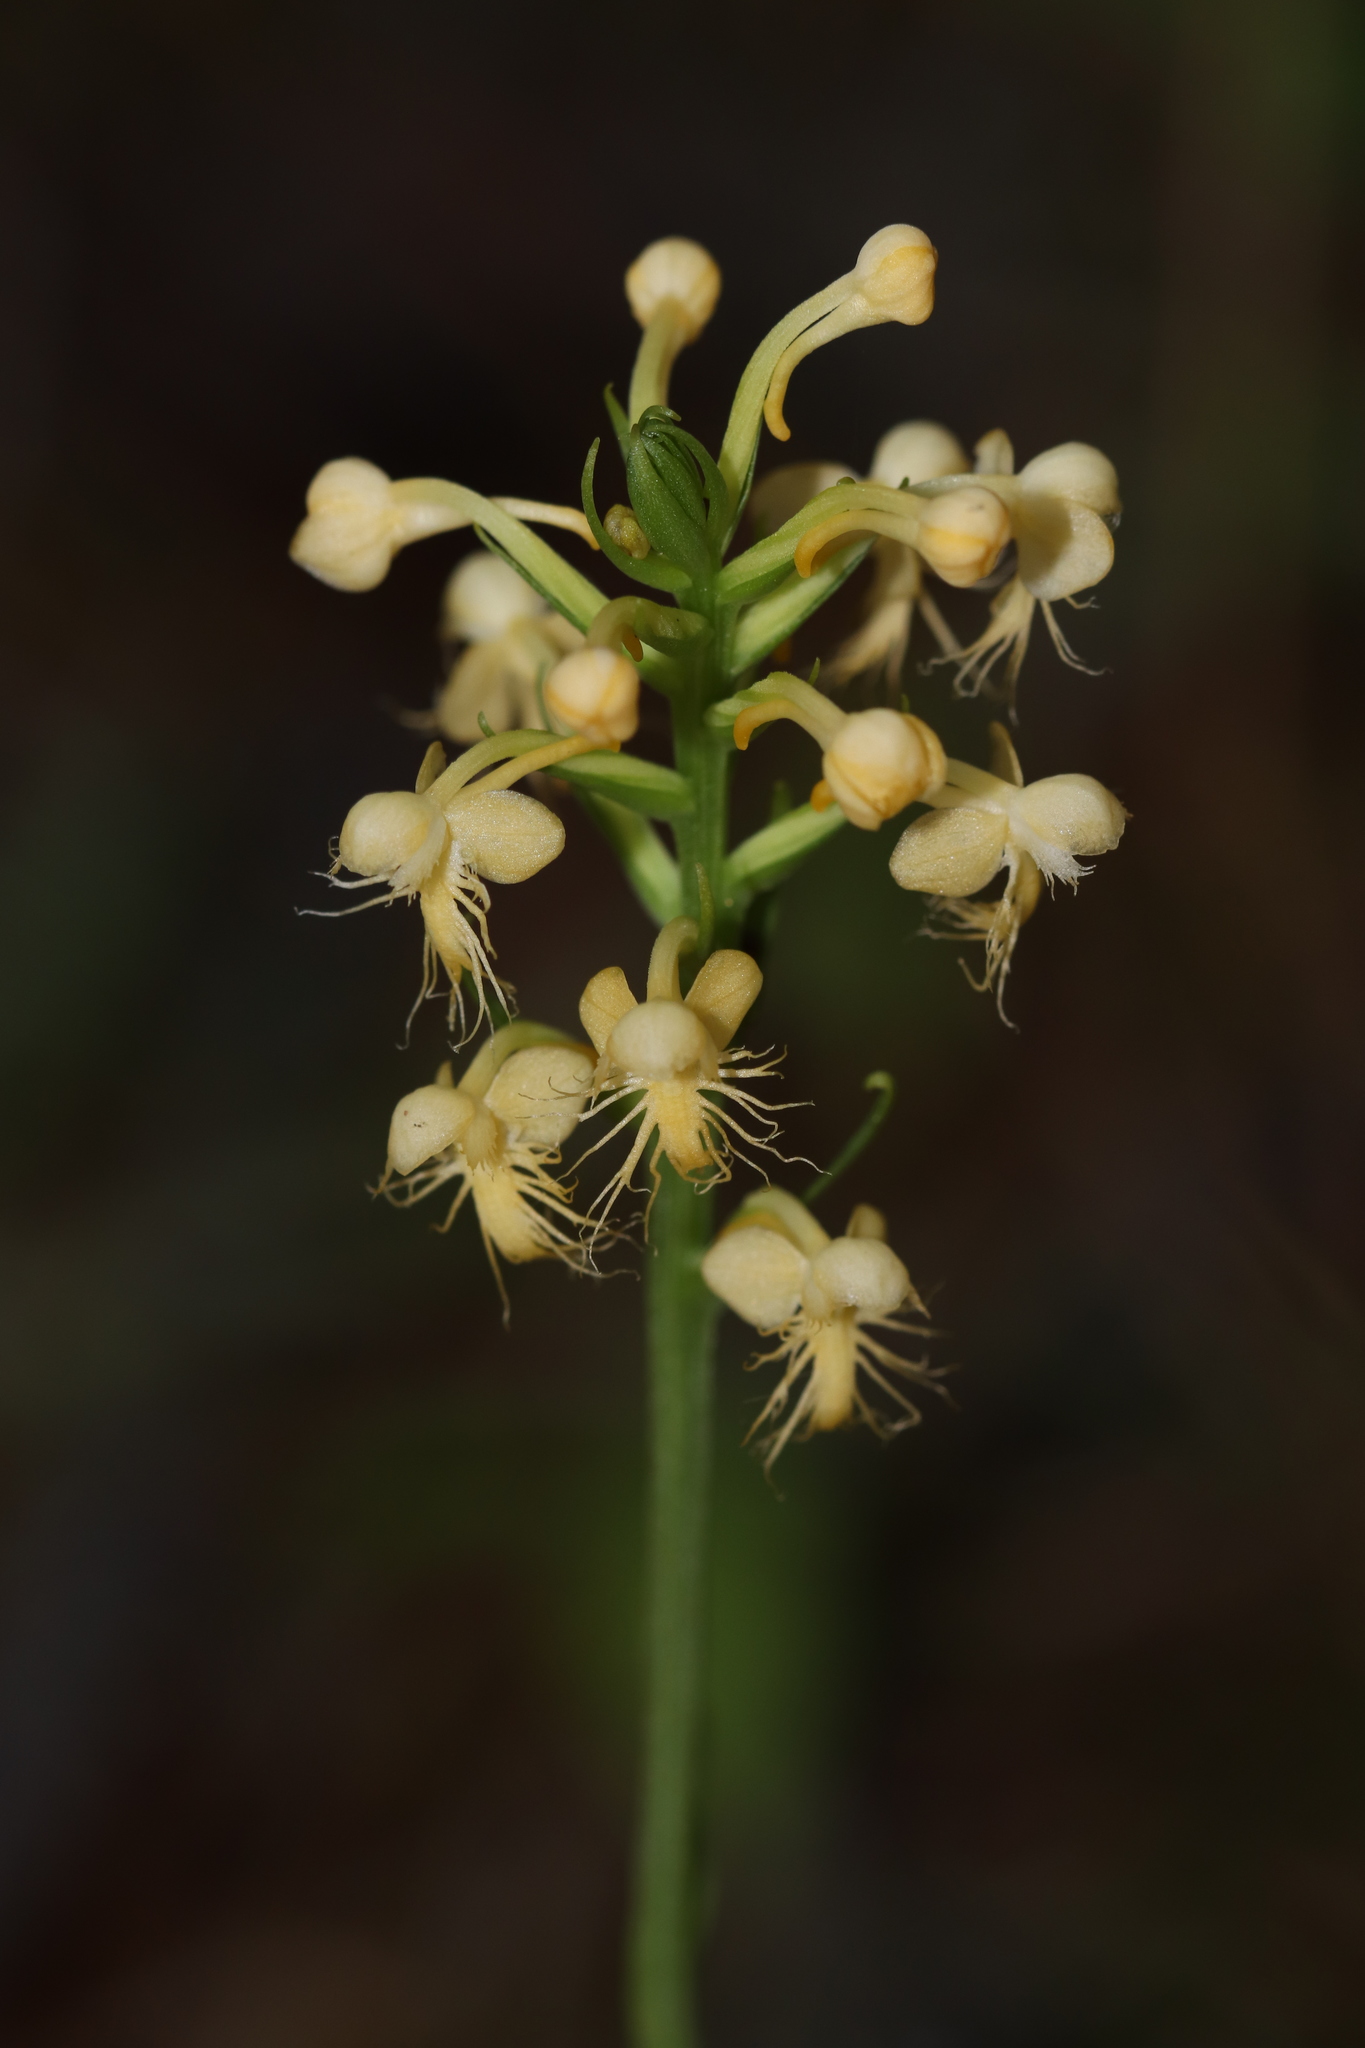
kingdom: Plantae
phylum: Tracheophyta
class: Liliopsida
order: Asparagales
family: Orchidaceae
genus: Platanthera
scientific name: Platanthera pallida
